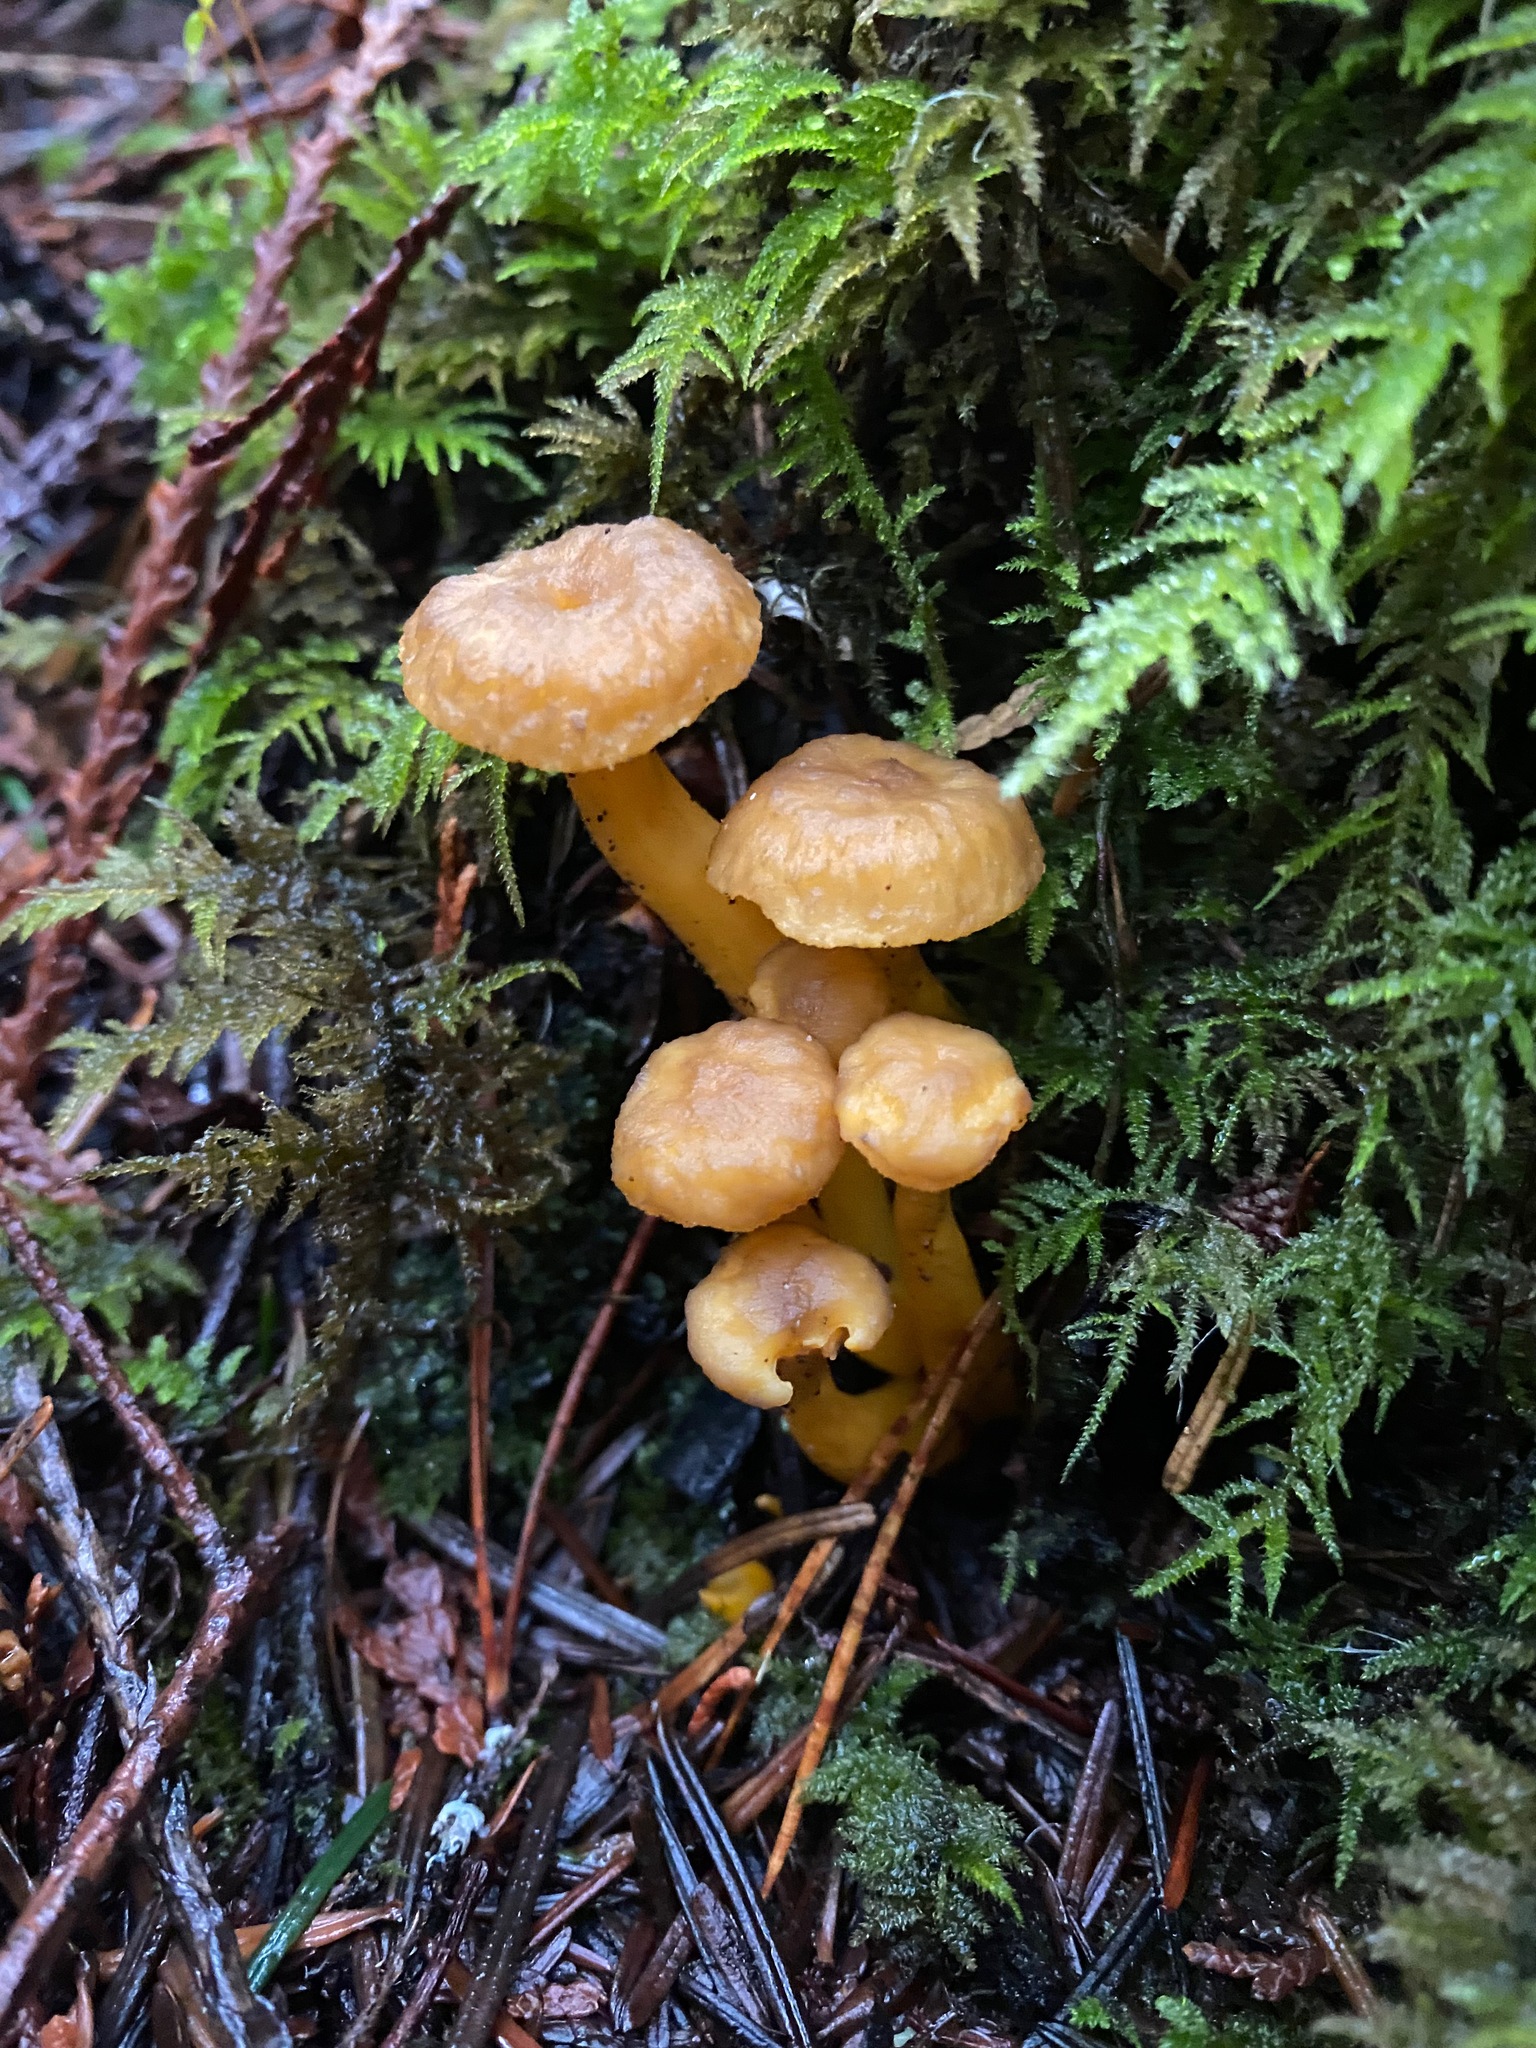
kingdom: Fungi
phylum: Basidiomycota
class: Agaricomycetes
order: Cantharellales
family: Hydnaceae
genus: Craterellus
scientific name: Craterellus tubaeformis
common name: Yellowfoot
